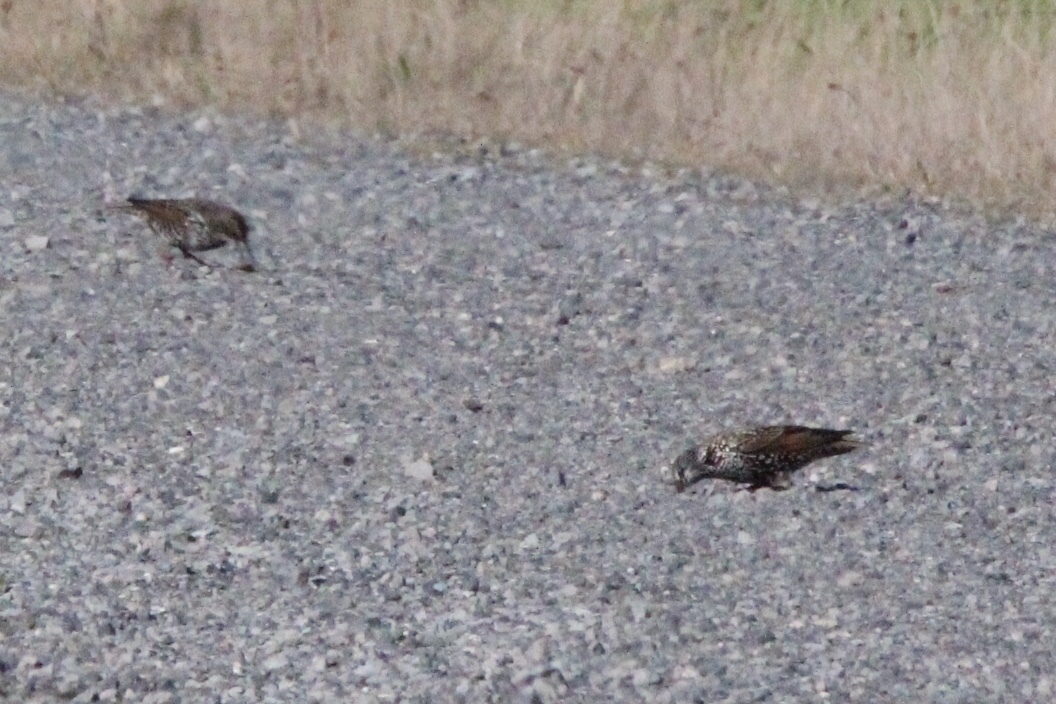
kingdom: Animalia
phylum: Chordata
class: Aves
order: Passeriformes
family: Sturnidae
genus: Sturnus
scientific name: Sturnus vulgaris
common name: Common starling
